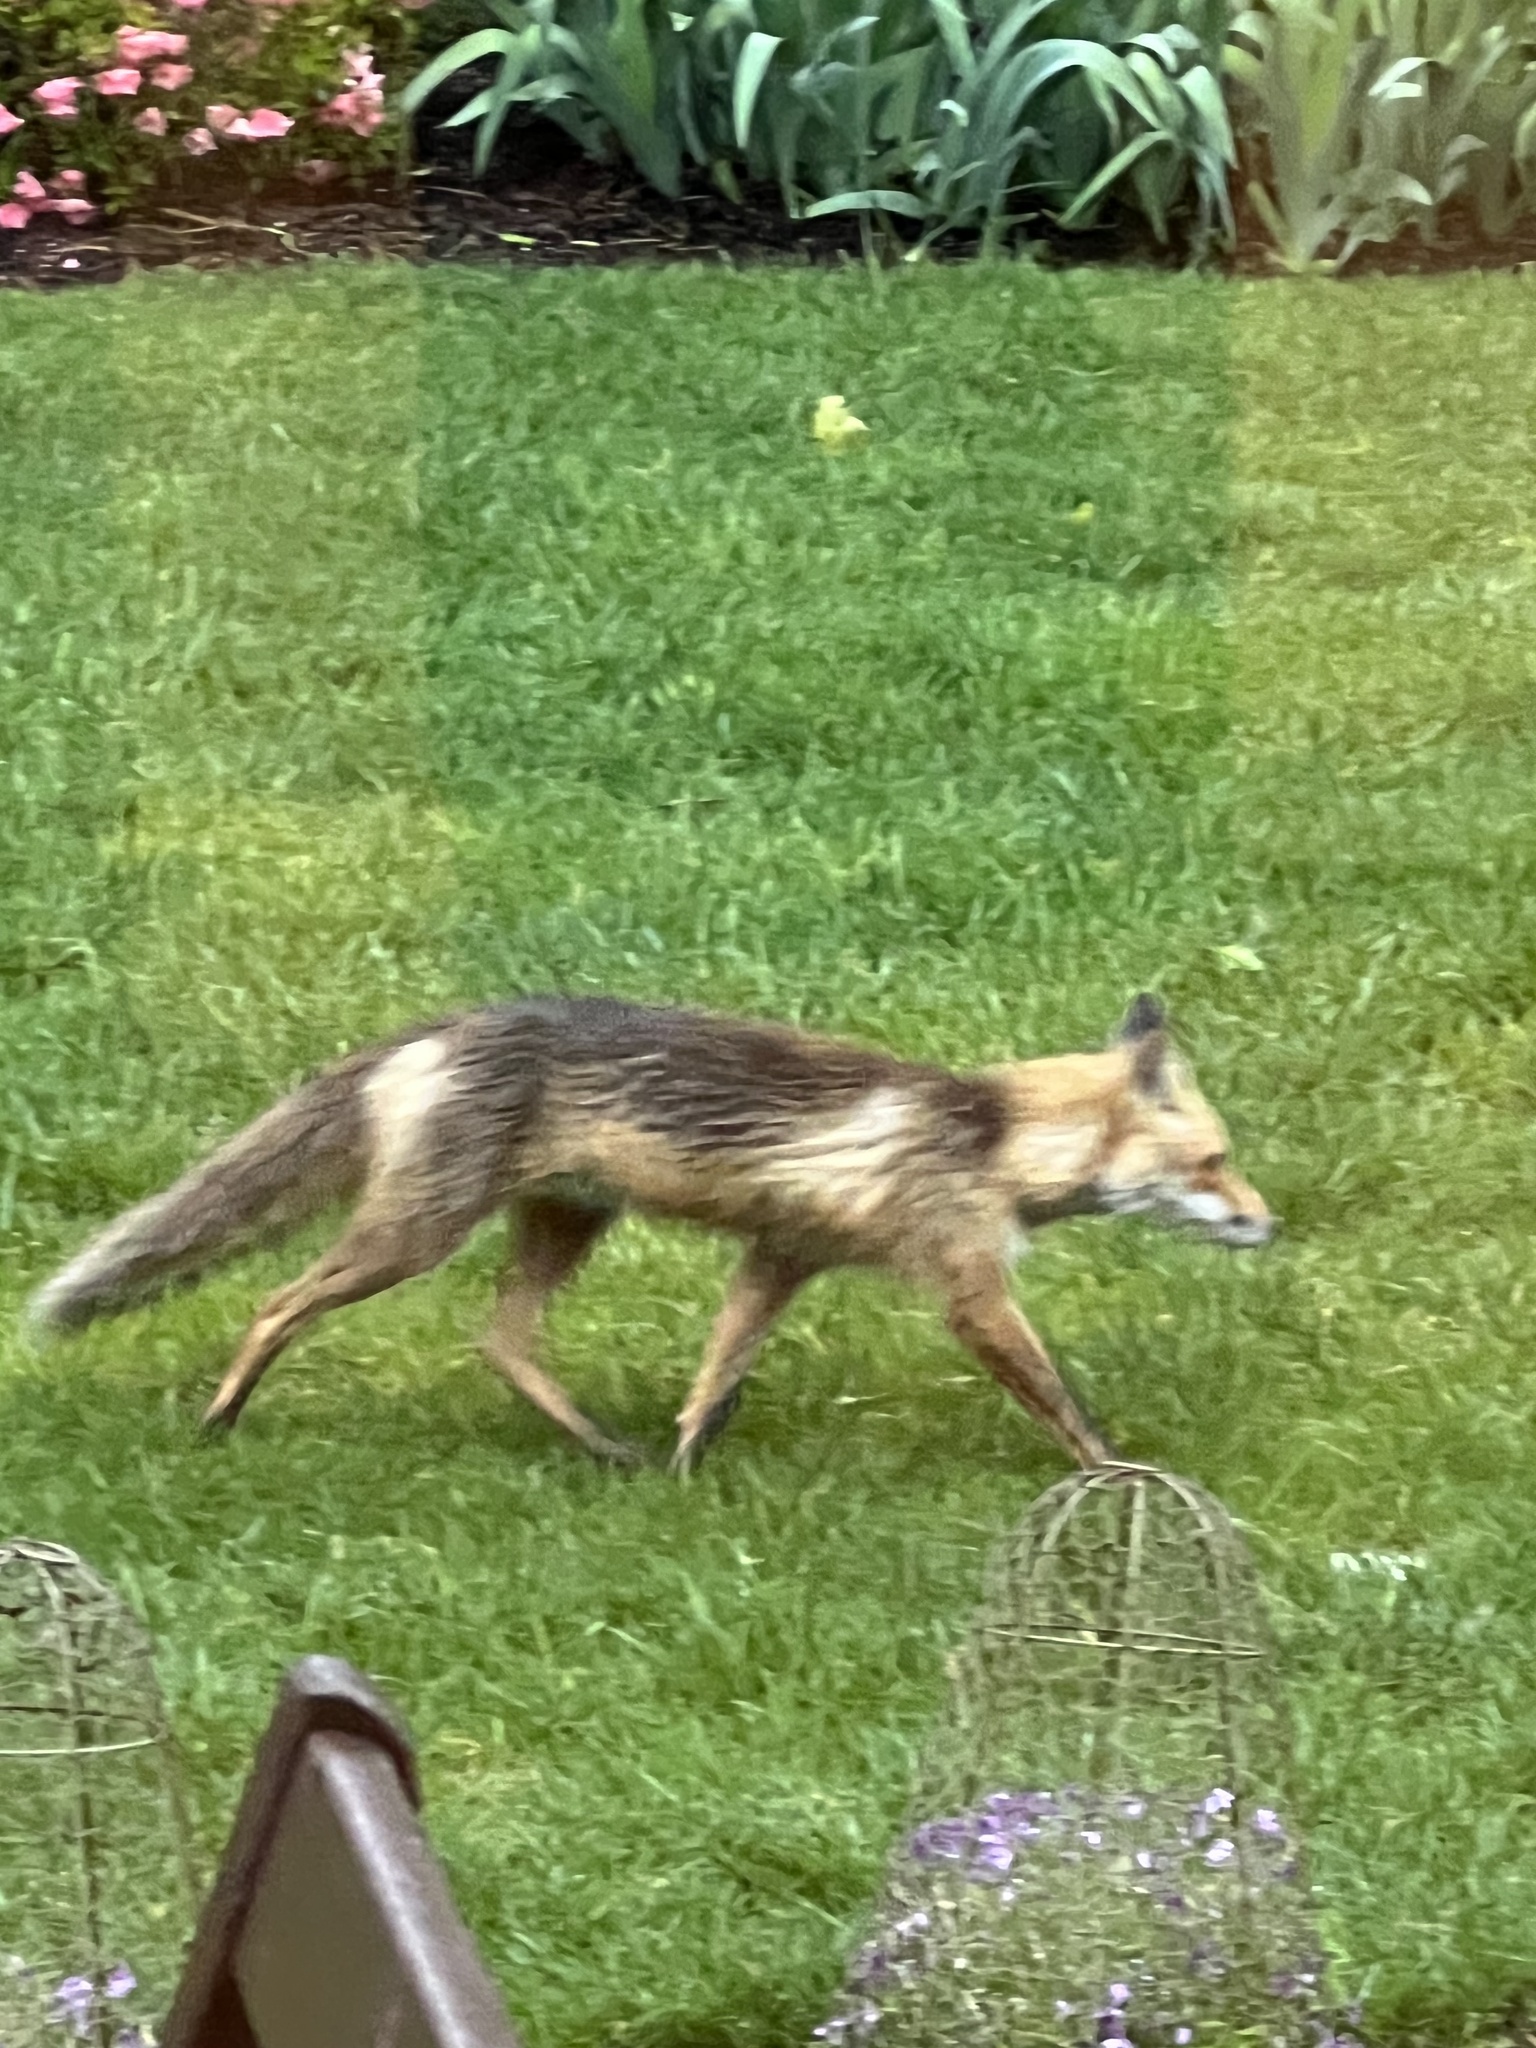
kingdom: Animalia
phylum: Chordata
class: Mammalia
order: Carnivora
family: Canidae
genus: Vulpes
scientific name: Vulpes vulpes
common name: Red fox
